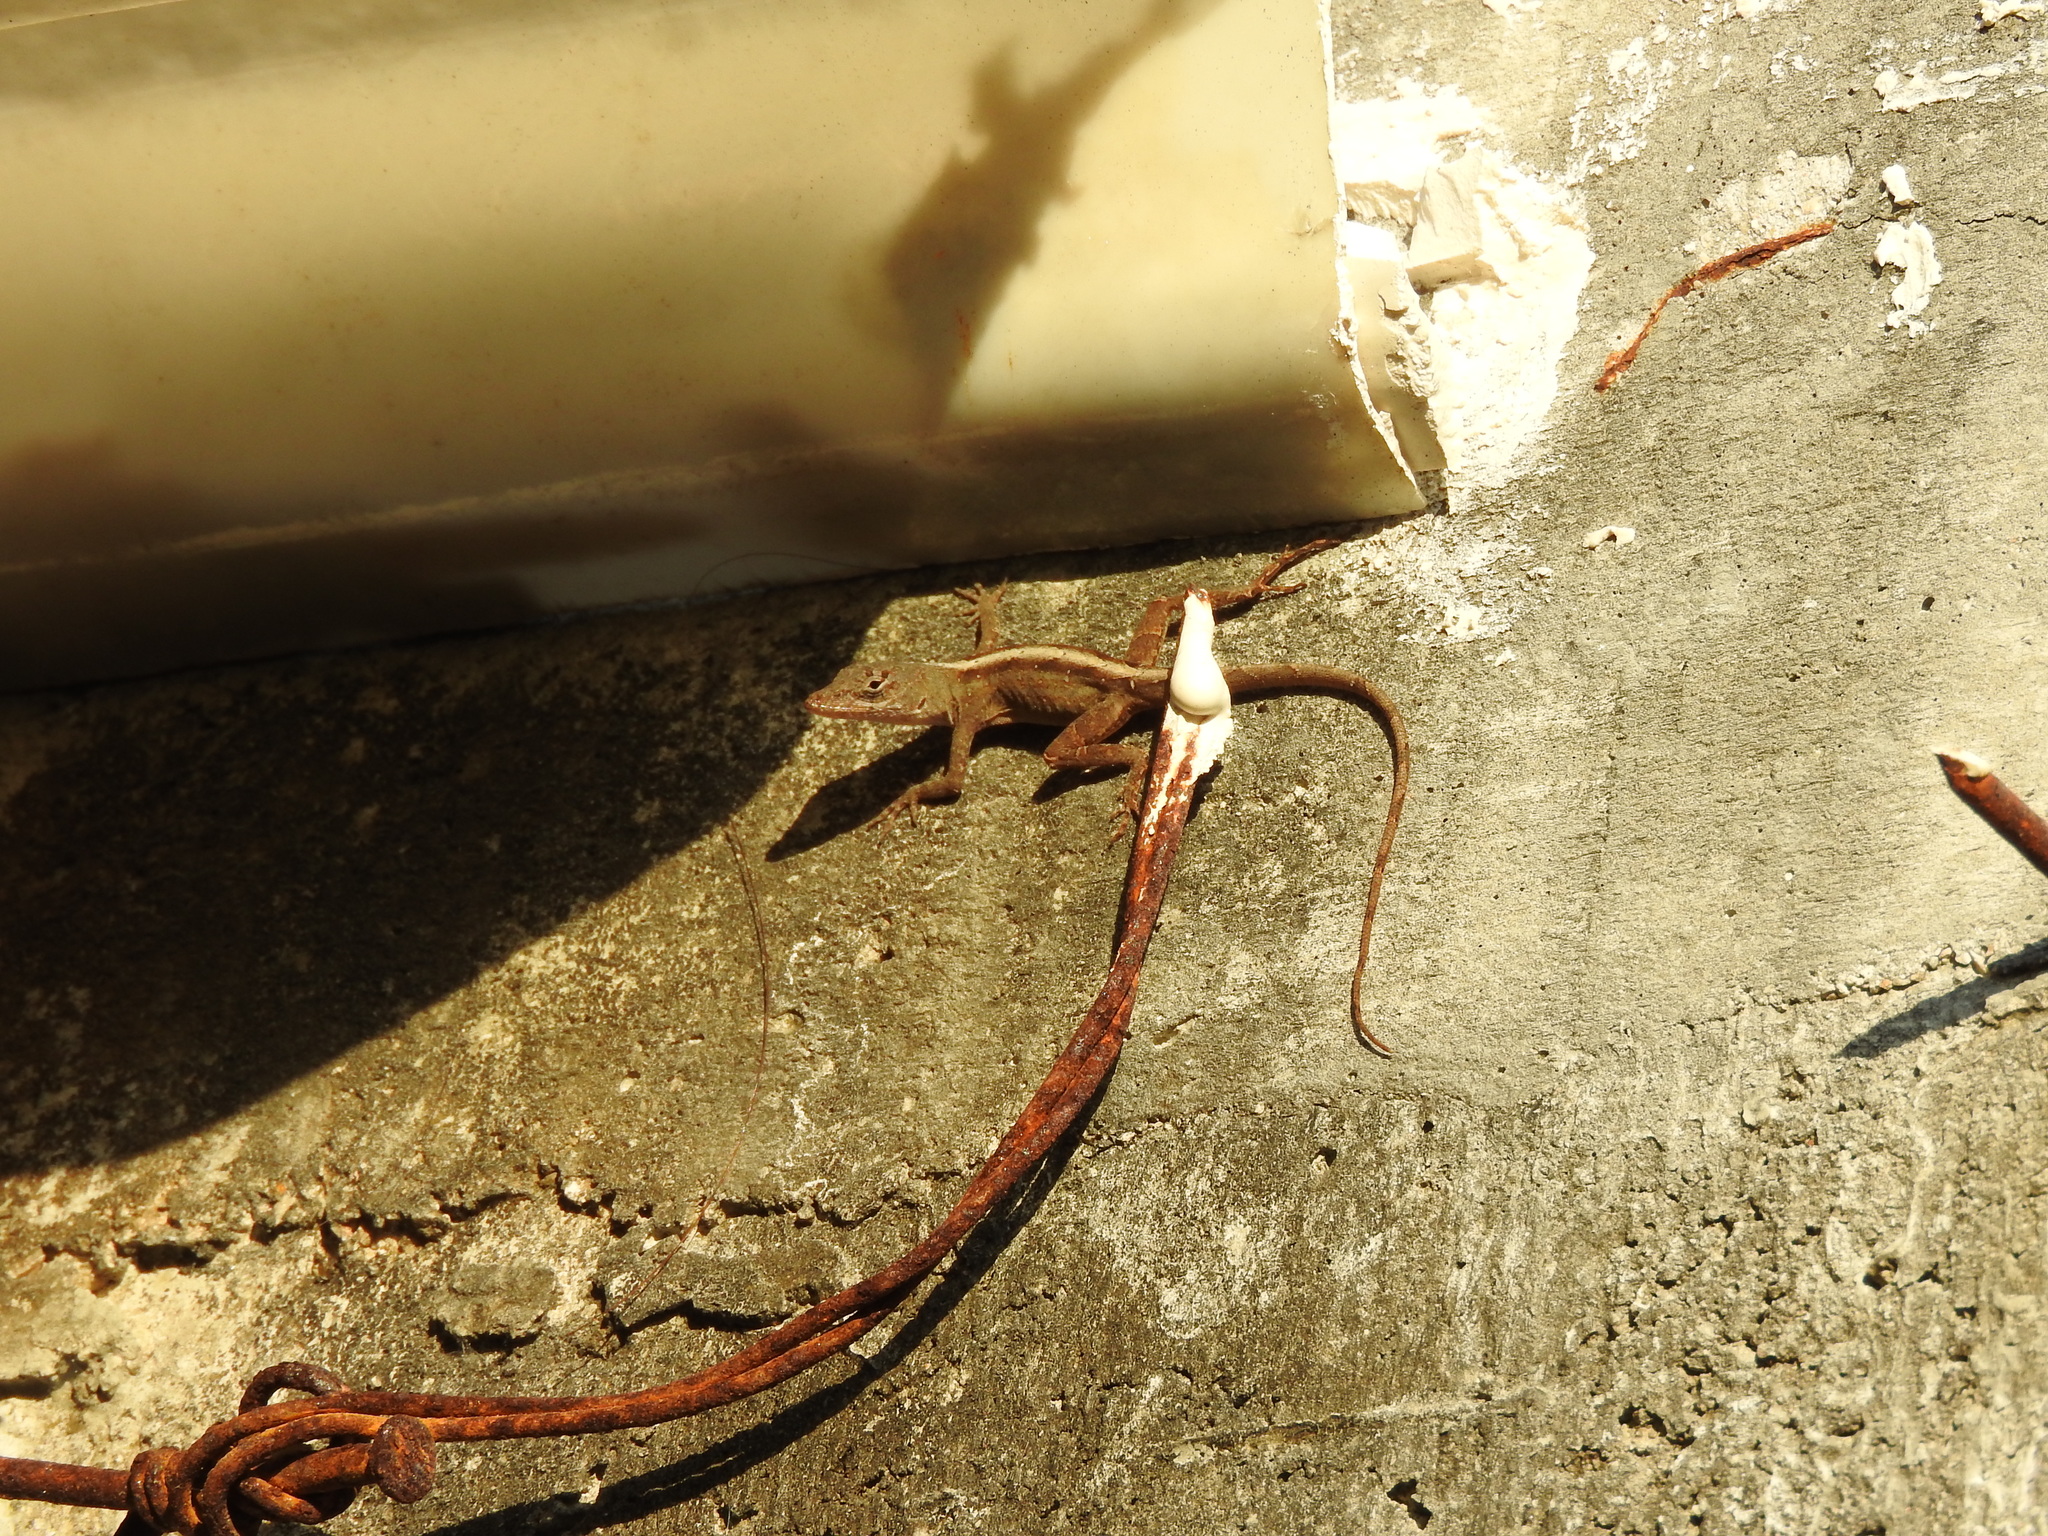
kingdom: Animalia
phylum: Chordata
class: Squamata
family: Dactyloidae
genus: Anolis
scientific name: Anolis sagrei
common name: Brown anole
